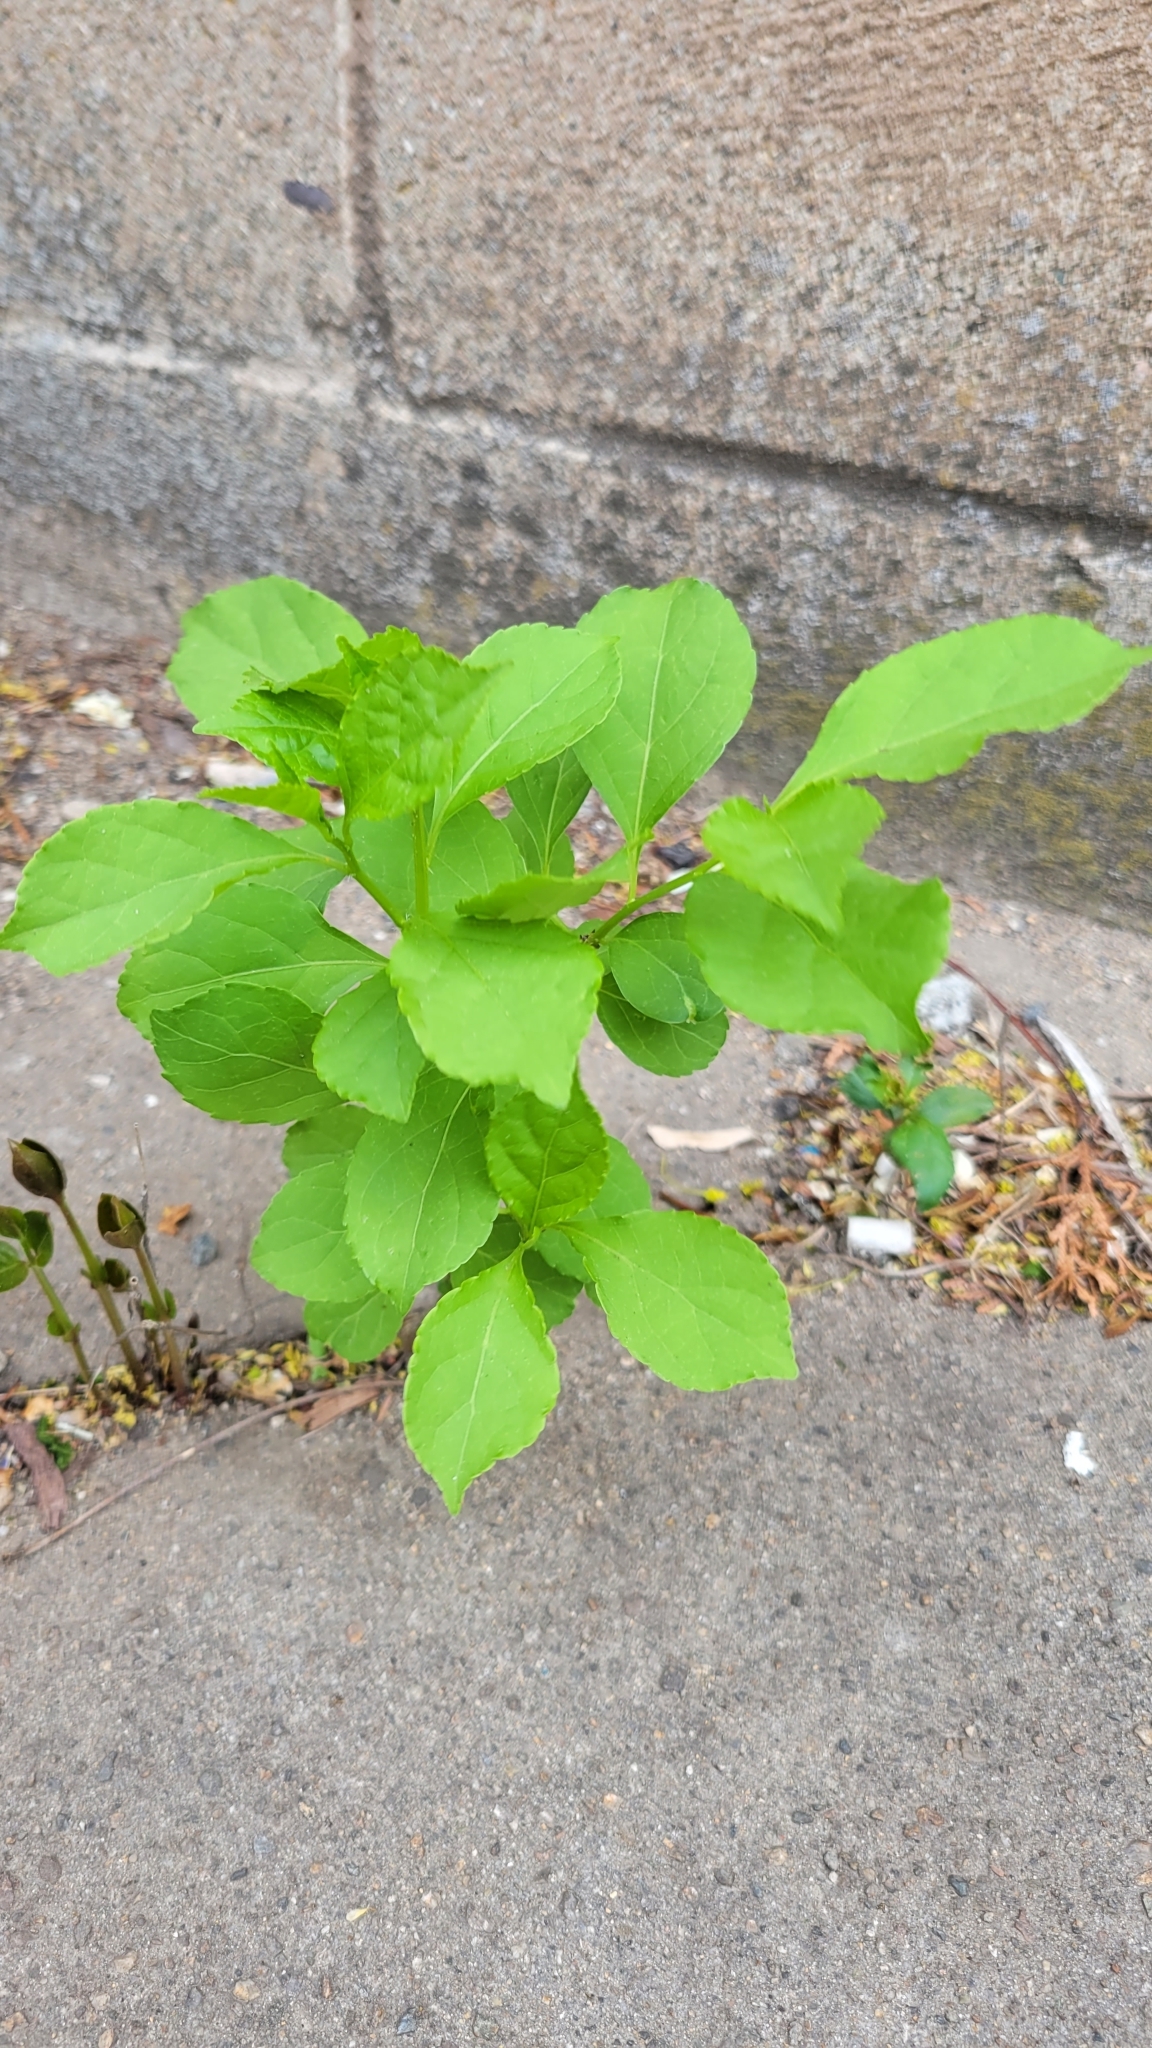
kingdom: Plantae
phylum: Tracheophyta
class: Magnoliopsida
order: Celastrales
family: Celastraceae
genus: Celastrus
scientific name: Celastrus orbiculatus
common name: Oriental bittersweet
